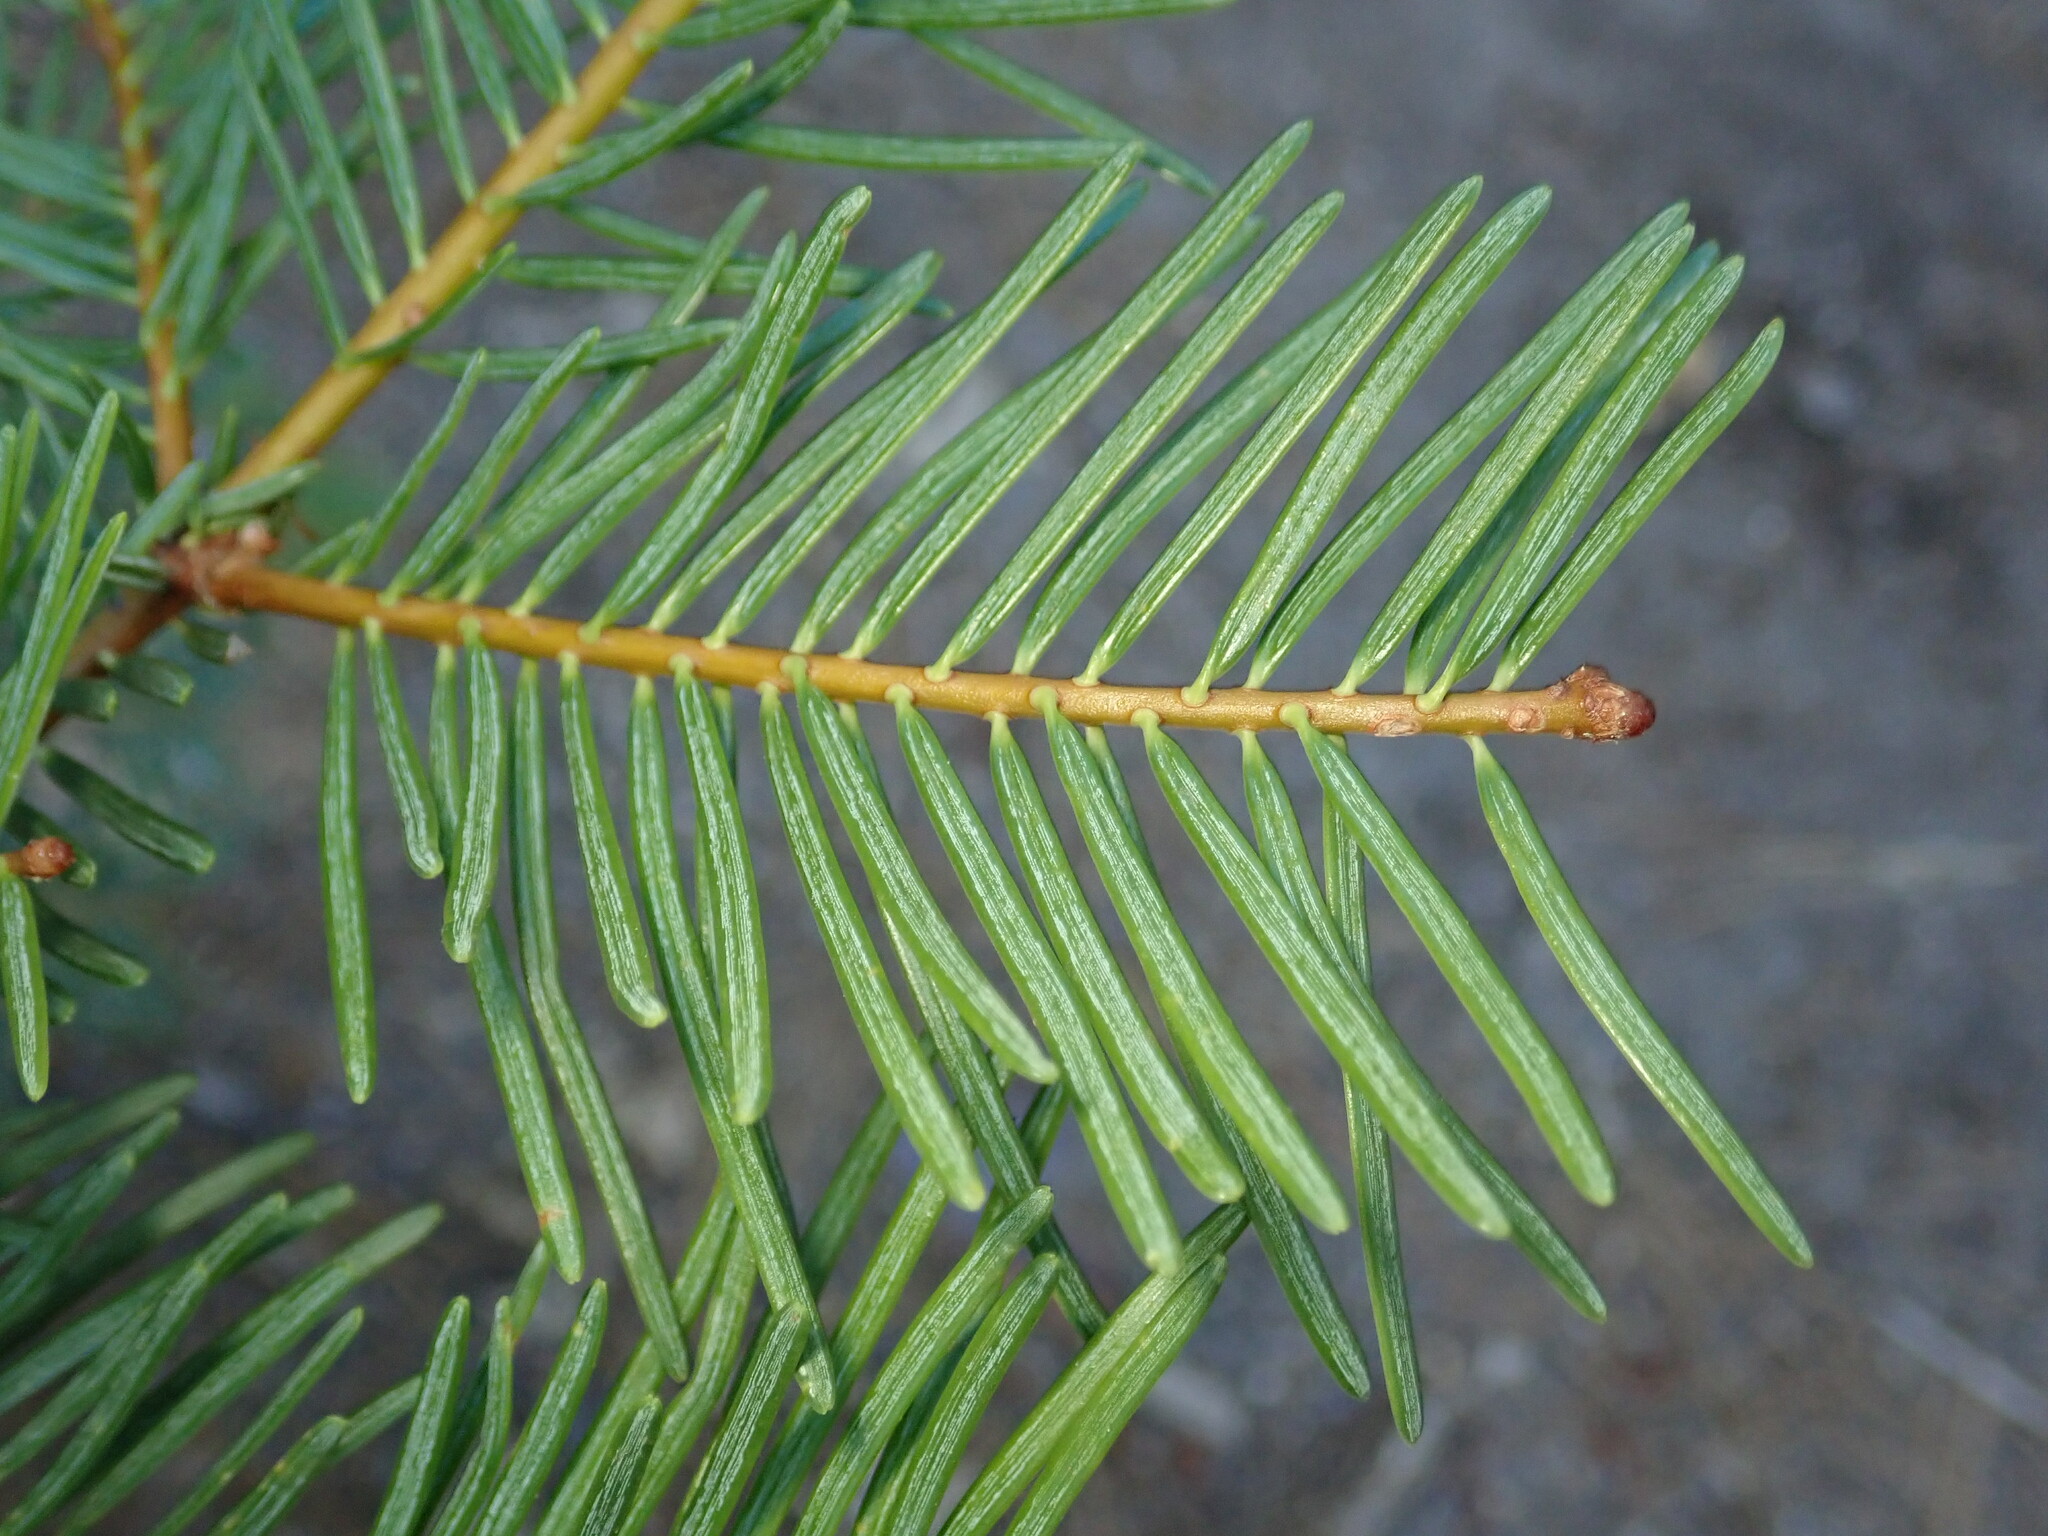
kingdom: Plantae
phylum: Tracheophyta
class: Pinopsida
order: Pinales
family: Pinaceae
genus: Abies
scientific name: Abies concolor
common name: Colorado fir
